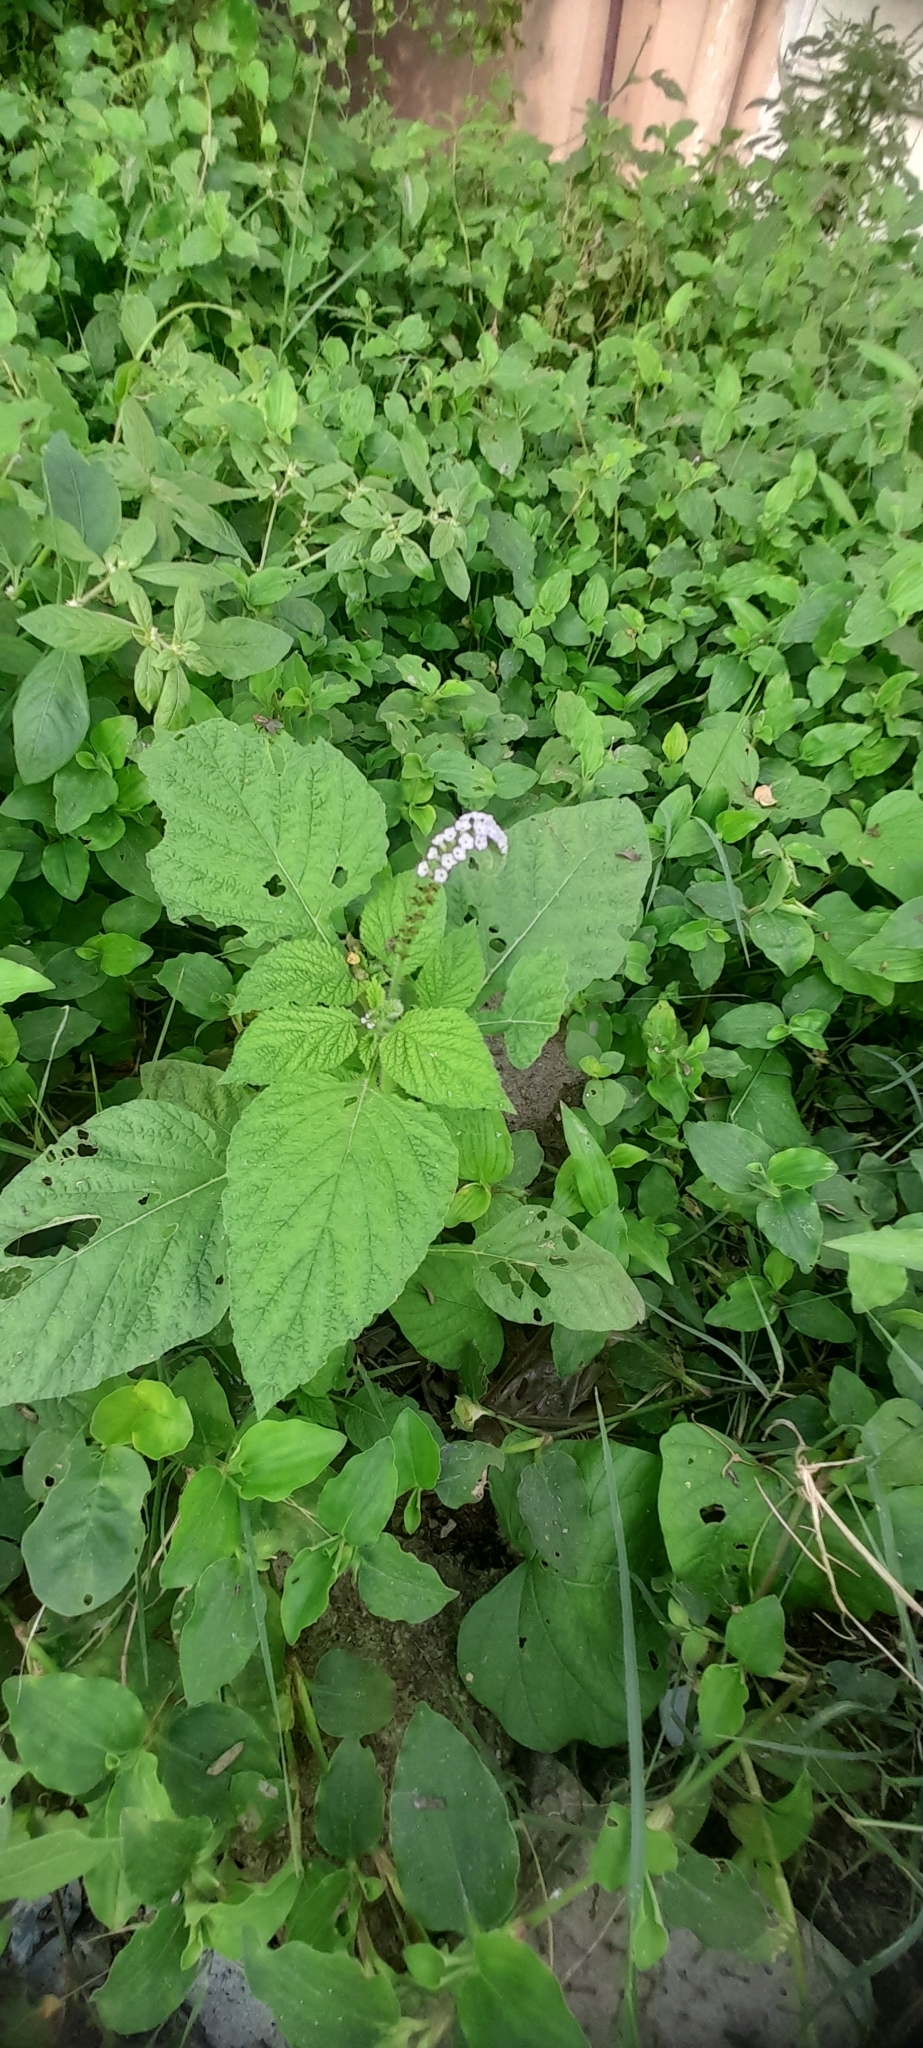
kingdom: Plantae
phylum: Tracheophyta
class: Magnoliopsida
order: Boraginales
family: Heliotropiaceae
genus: Heliotropium
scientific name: Heliotropium indicum
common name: Indian heliotrope
